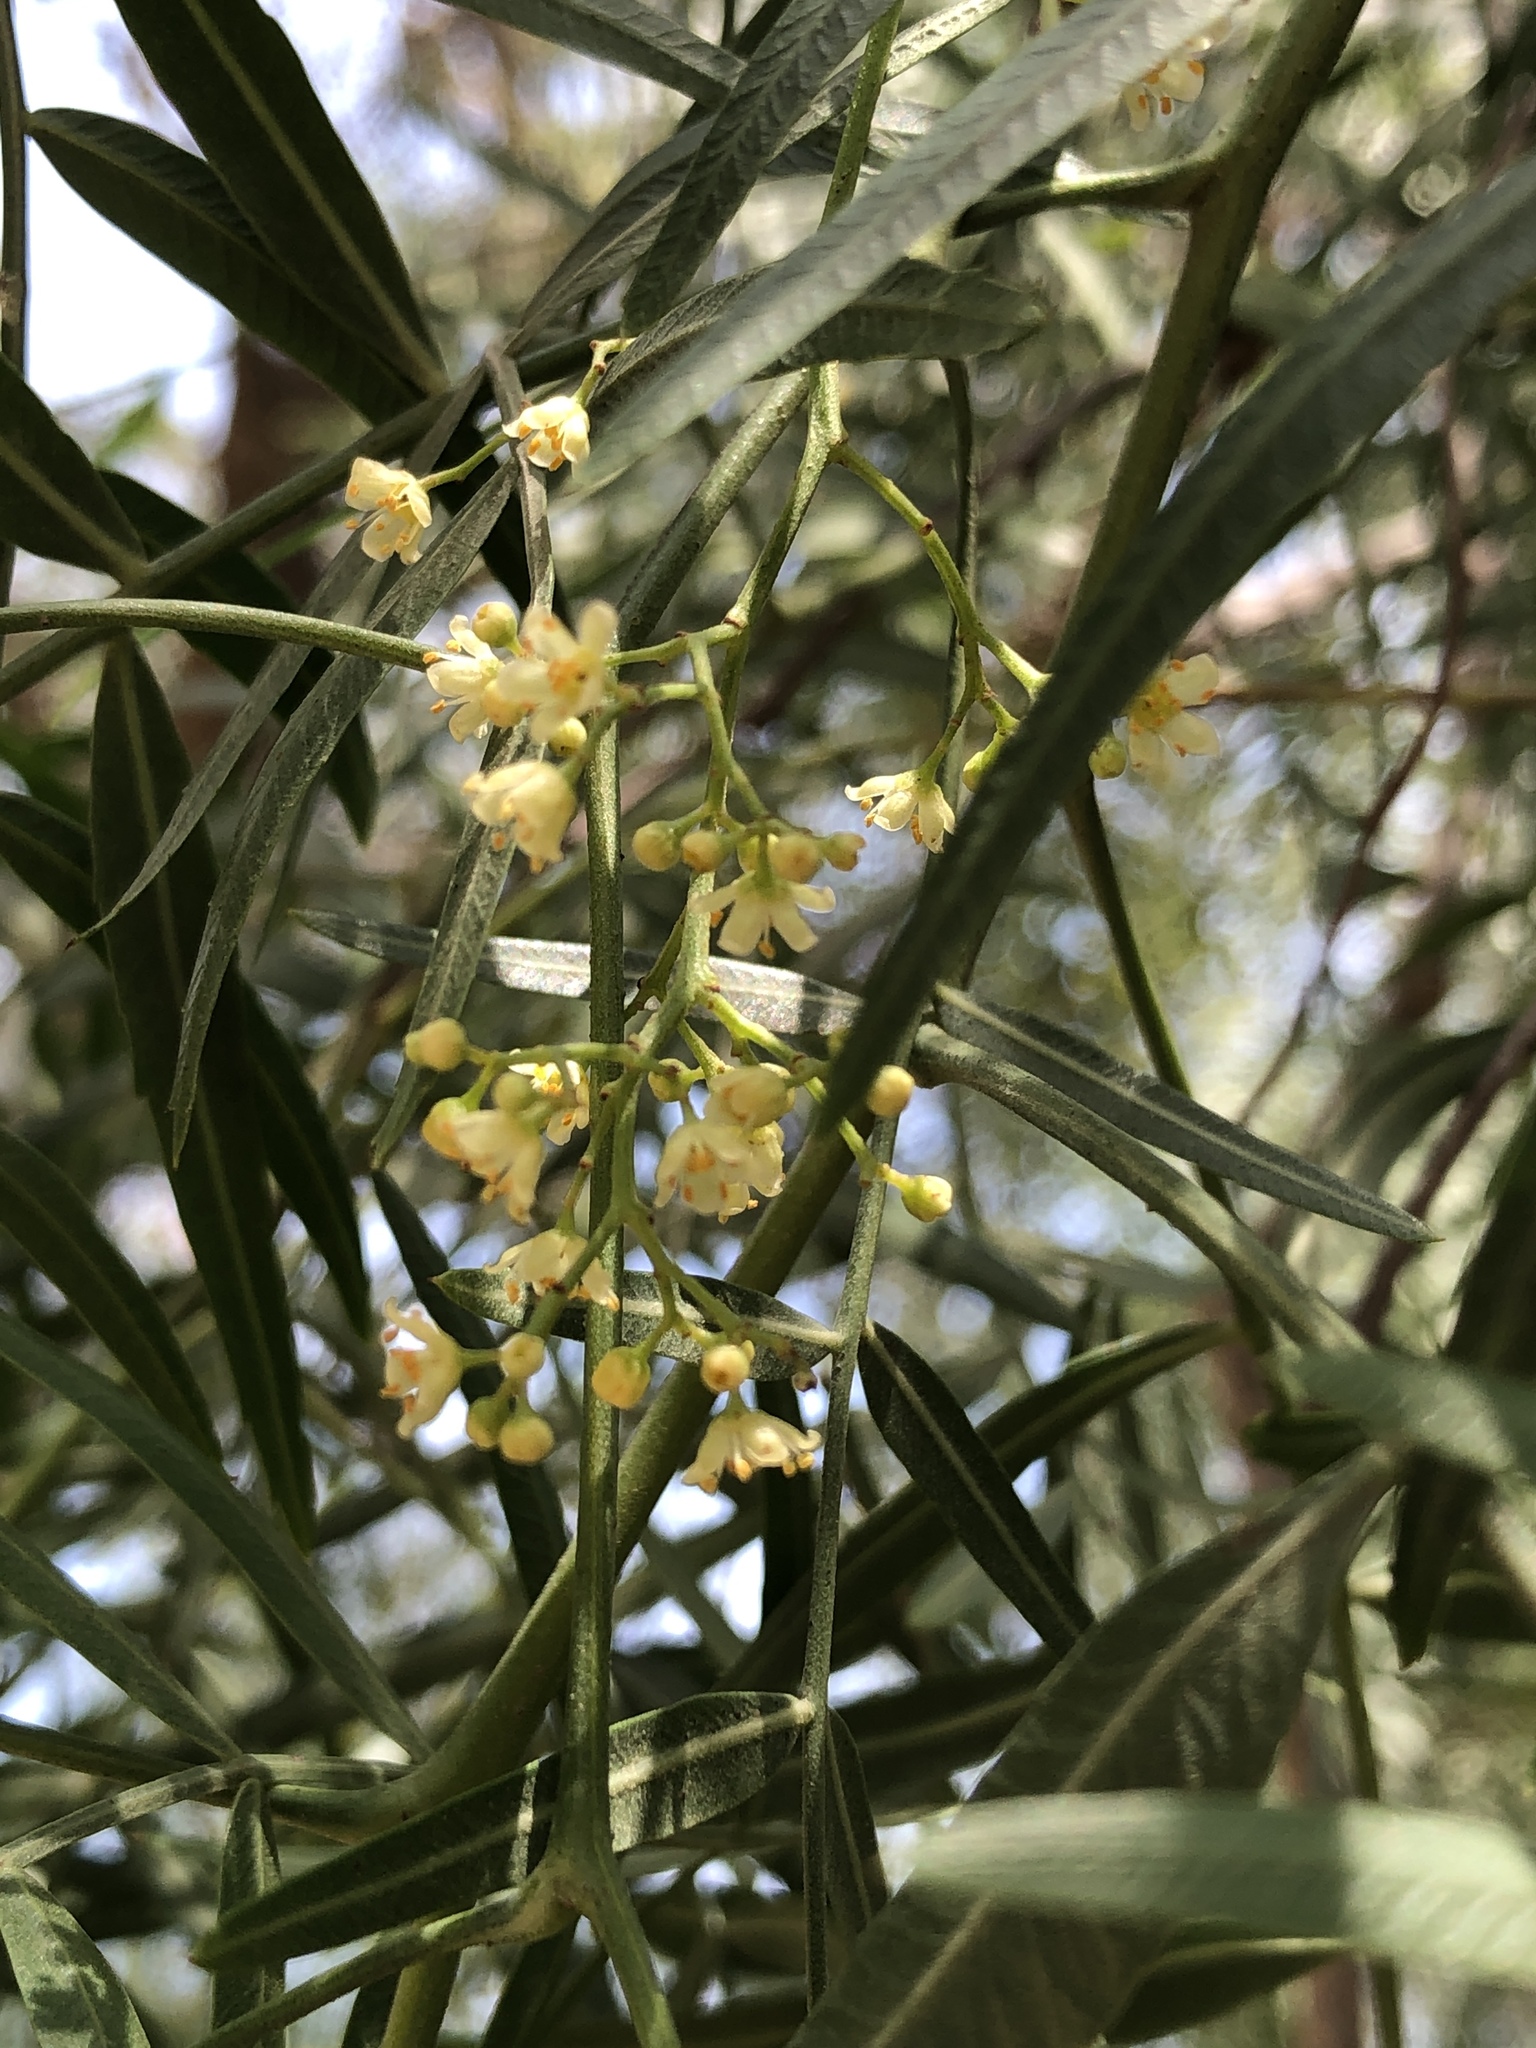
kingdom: Plantae
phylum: Tracheophyta
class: Magnoliopsida
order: Sapindales
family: Anacardiaceae
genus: Schinus
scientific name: Schinus molle
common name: Peruvian peppertree
